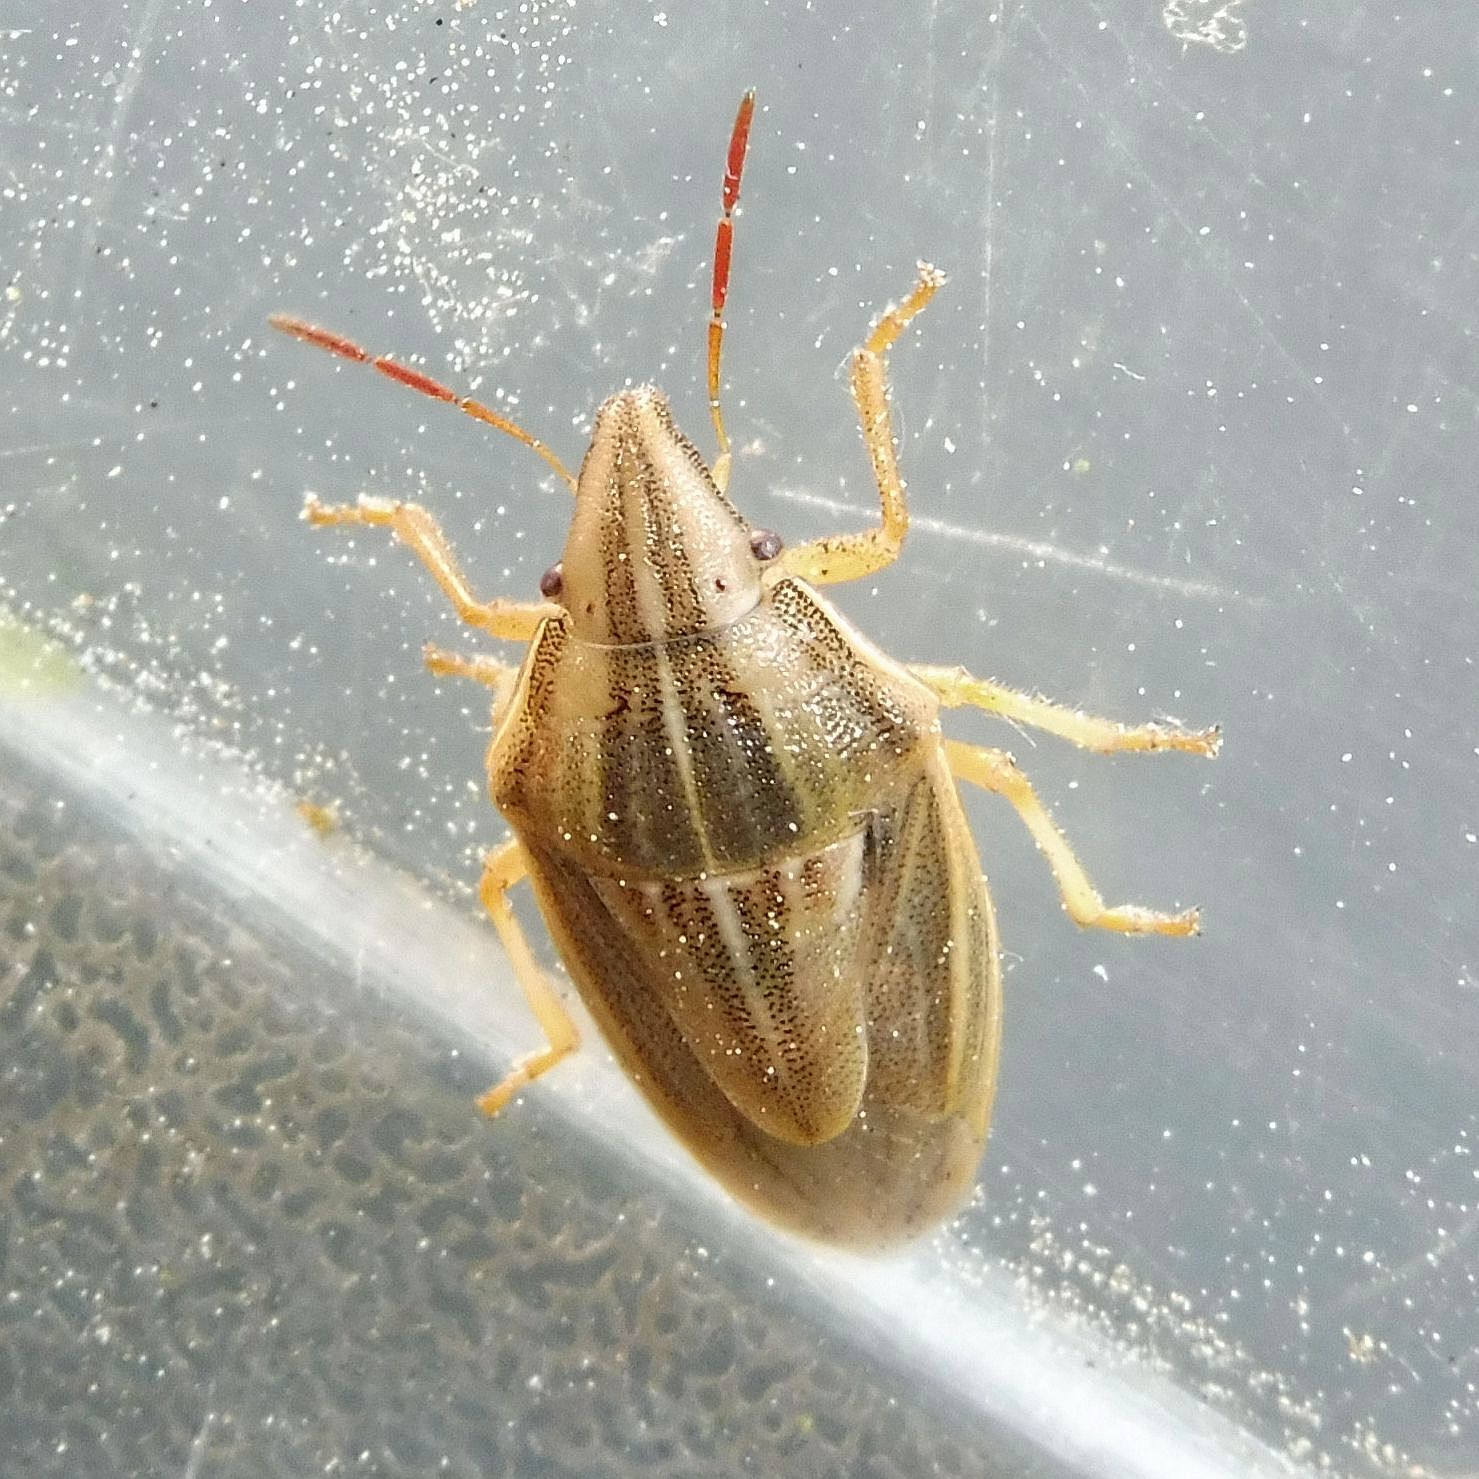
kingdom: Animalia
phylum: Arthropoda
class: Insecta
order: Hemiptera
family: Pentatomidae
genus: Aelia
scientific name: Aelia acuminata
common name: Bishop's mitre
